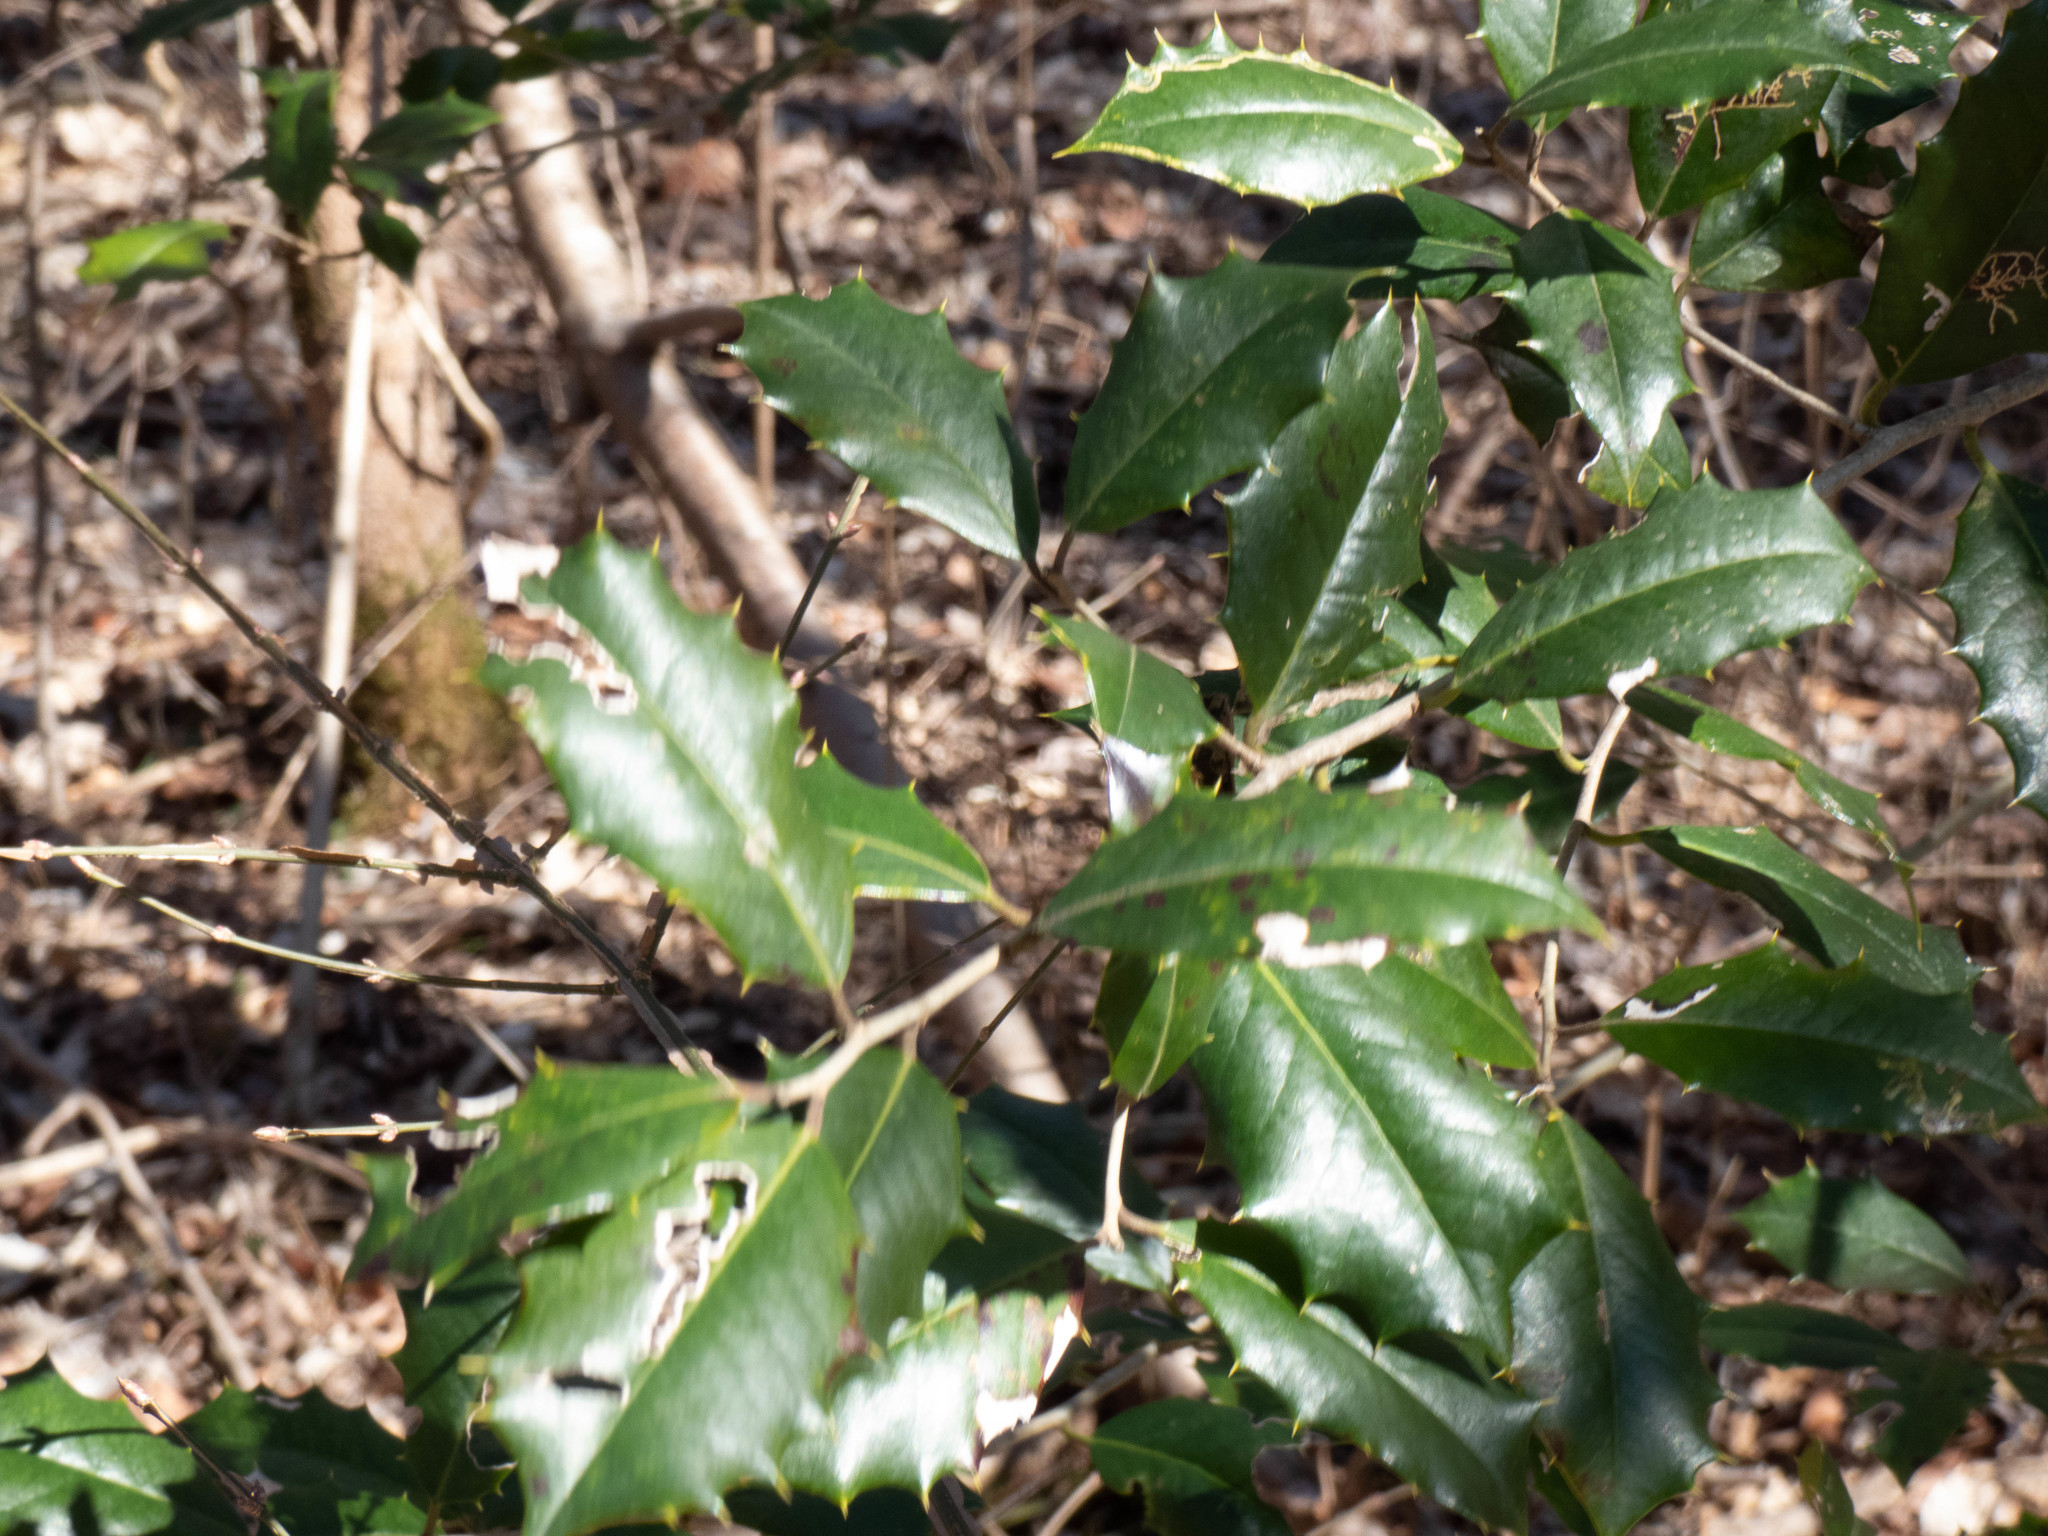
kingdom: Plantae
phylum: Tracheophyta
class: Magnoliopsida
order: Aquifoliales
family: Aquifoliaceae
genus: Ilex
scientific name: Ilex opaca
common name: American holly
